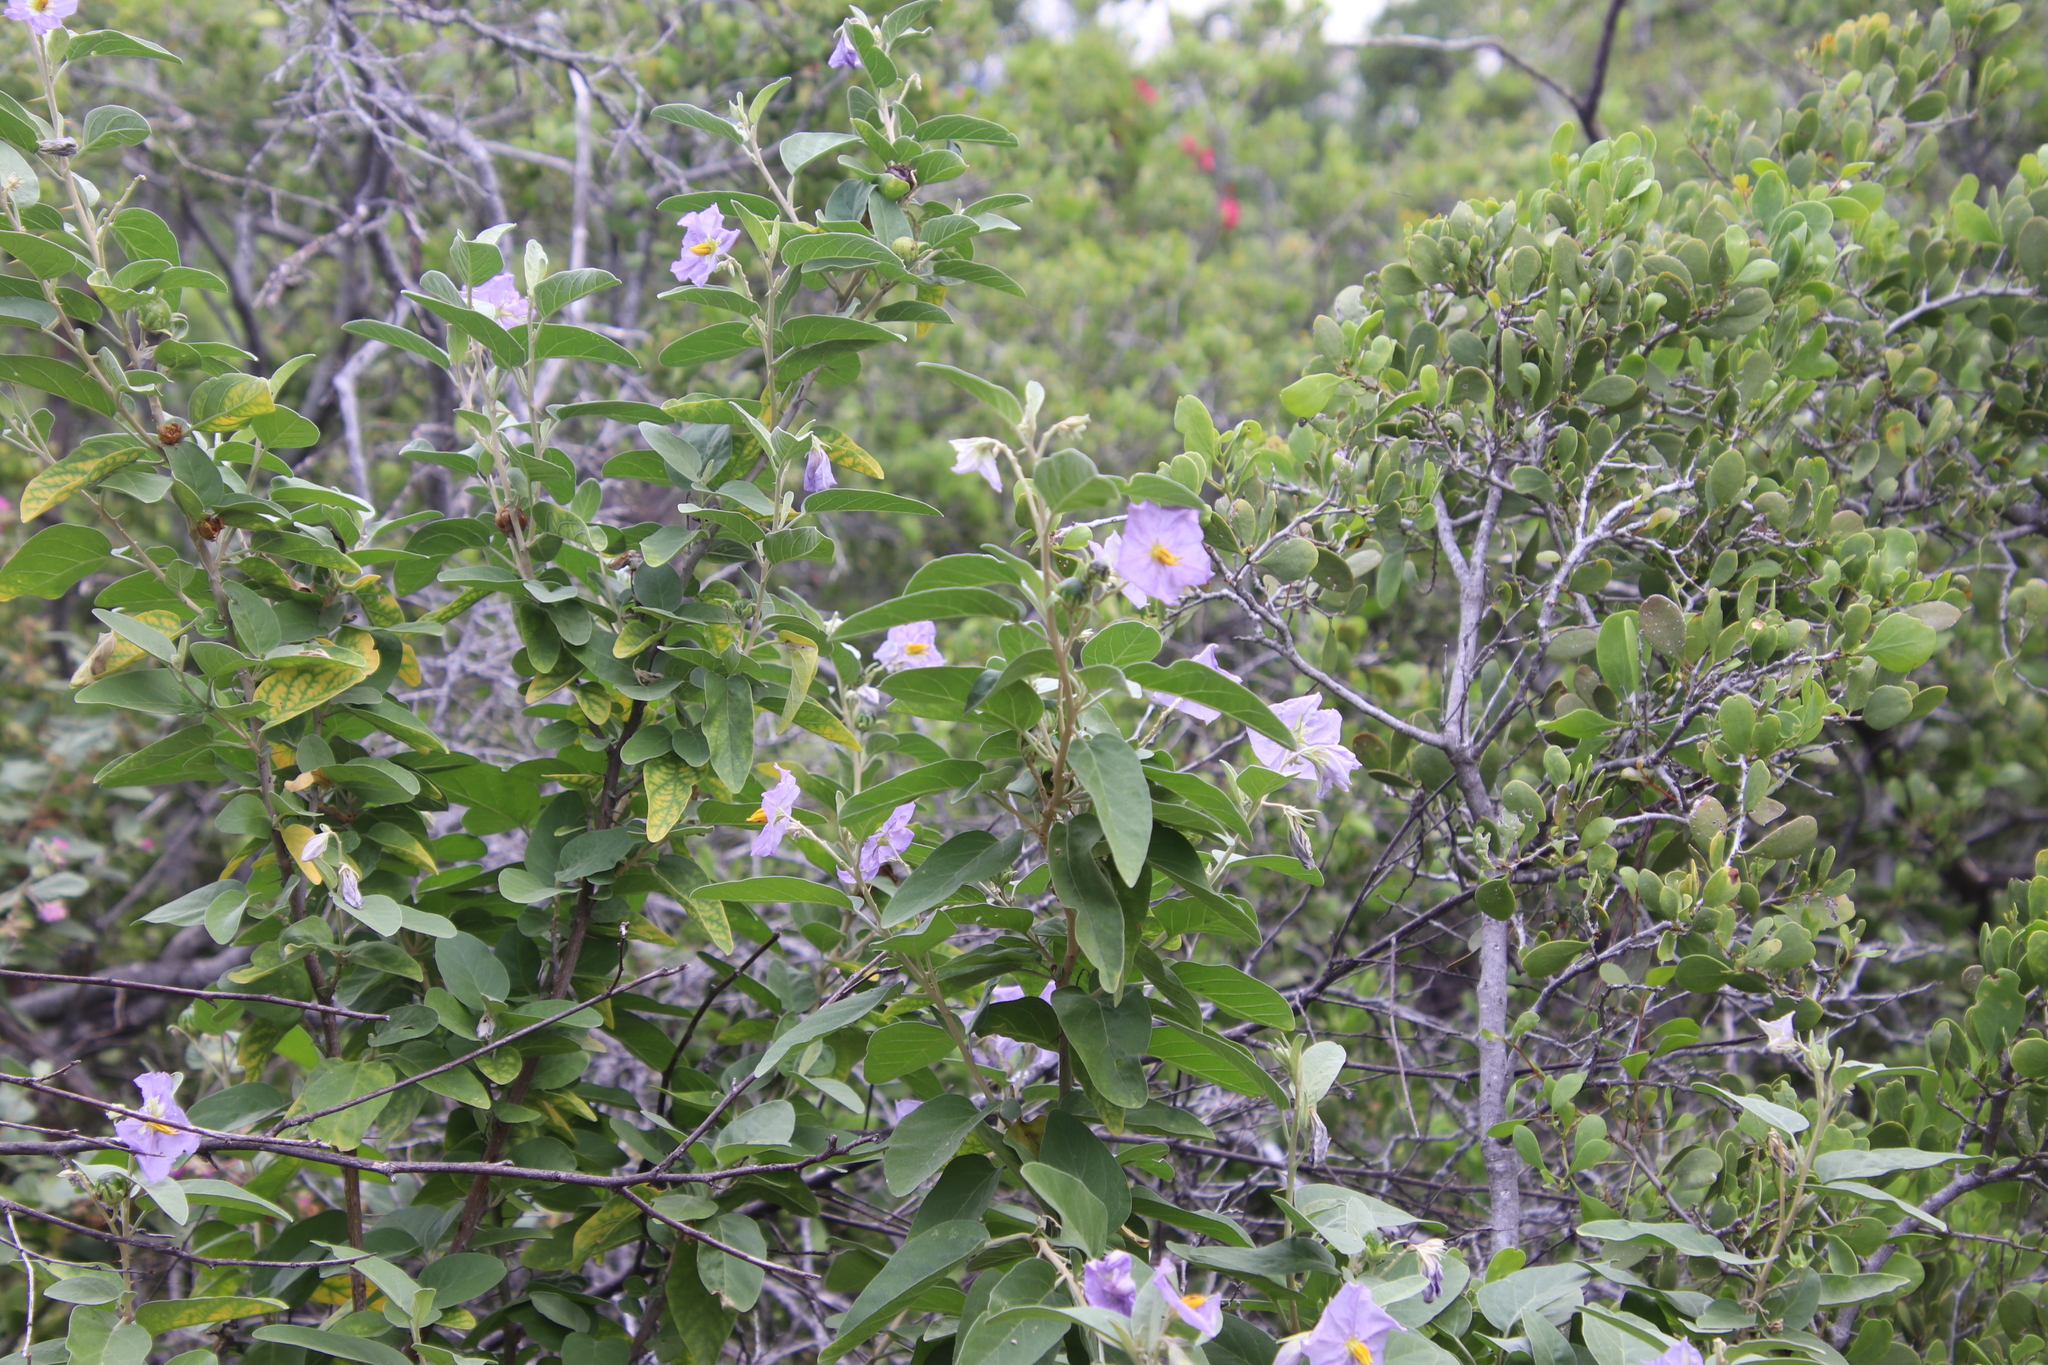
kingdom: Plantae
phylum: Tracheophyta
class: Magnoliopsida
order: Solanales
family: Solanaceae
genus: Solanum
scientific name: Solanum hindsianum
